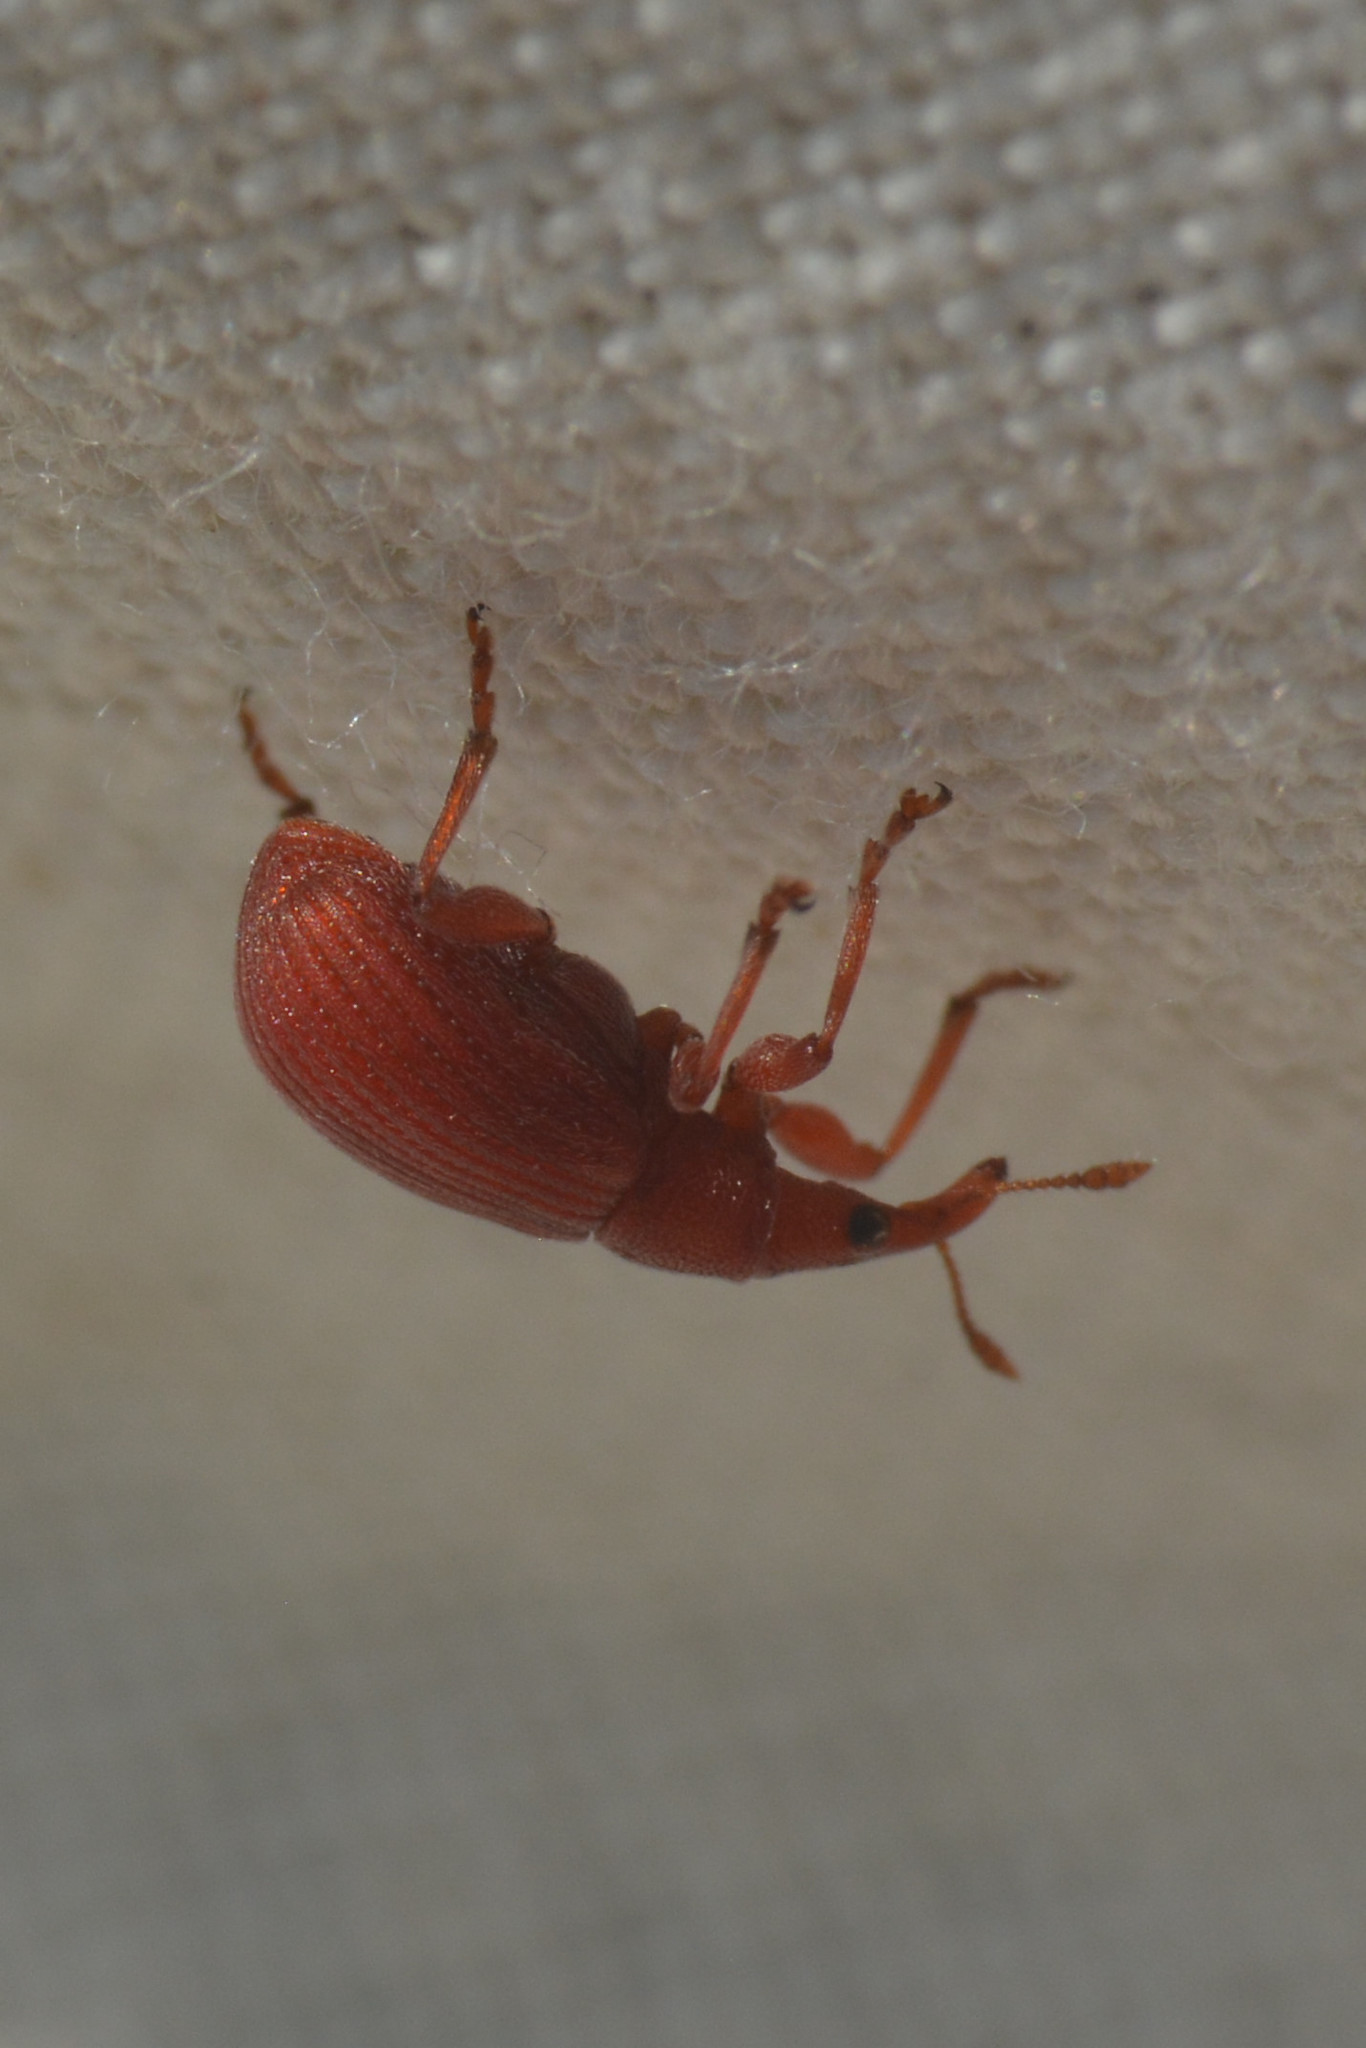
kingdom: Animalia
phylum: Arthropoda
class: Insecta
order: Coleoptera
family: Apionidae
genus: Apion
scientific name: Apion frumentarium
